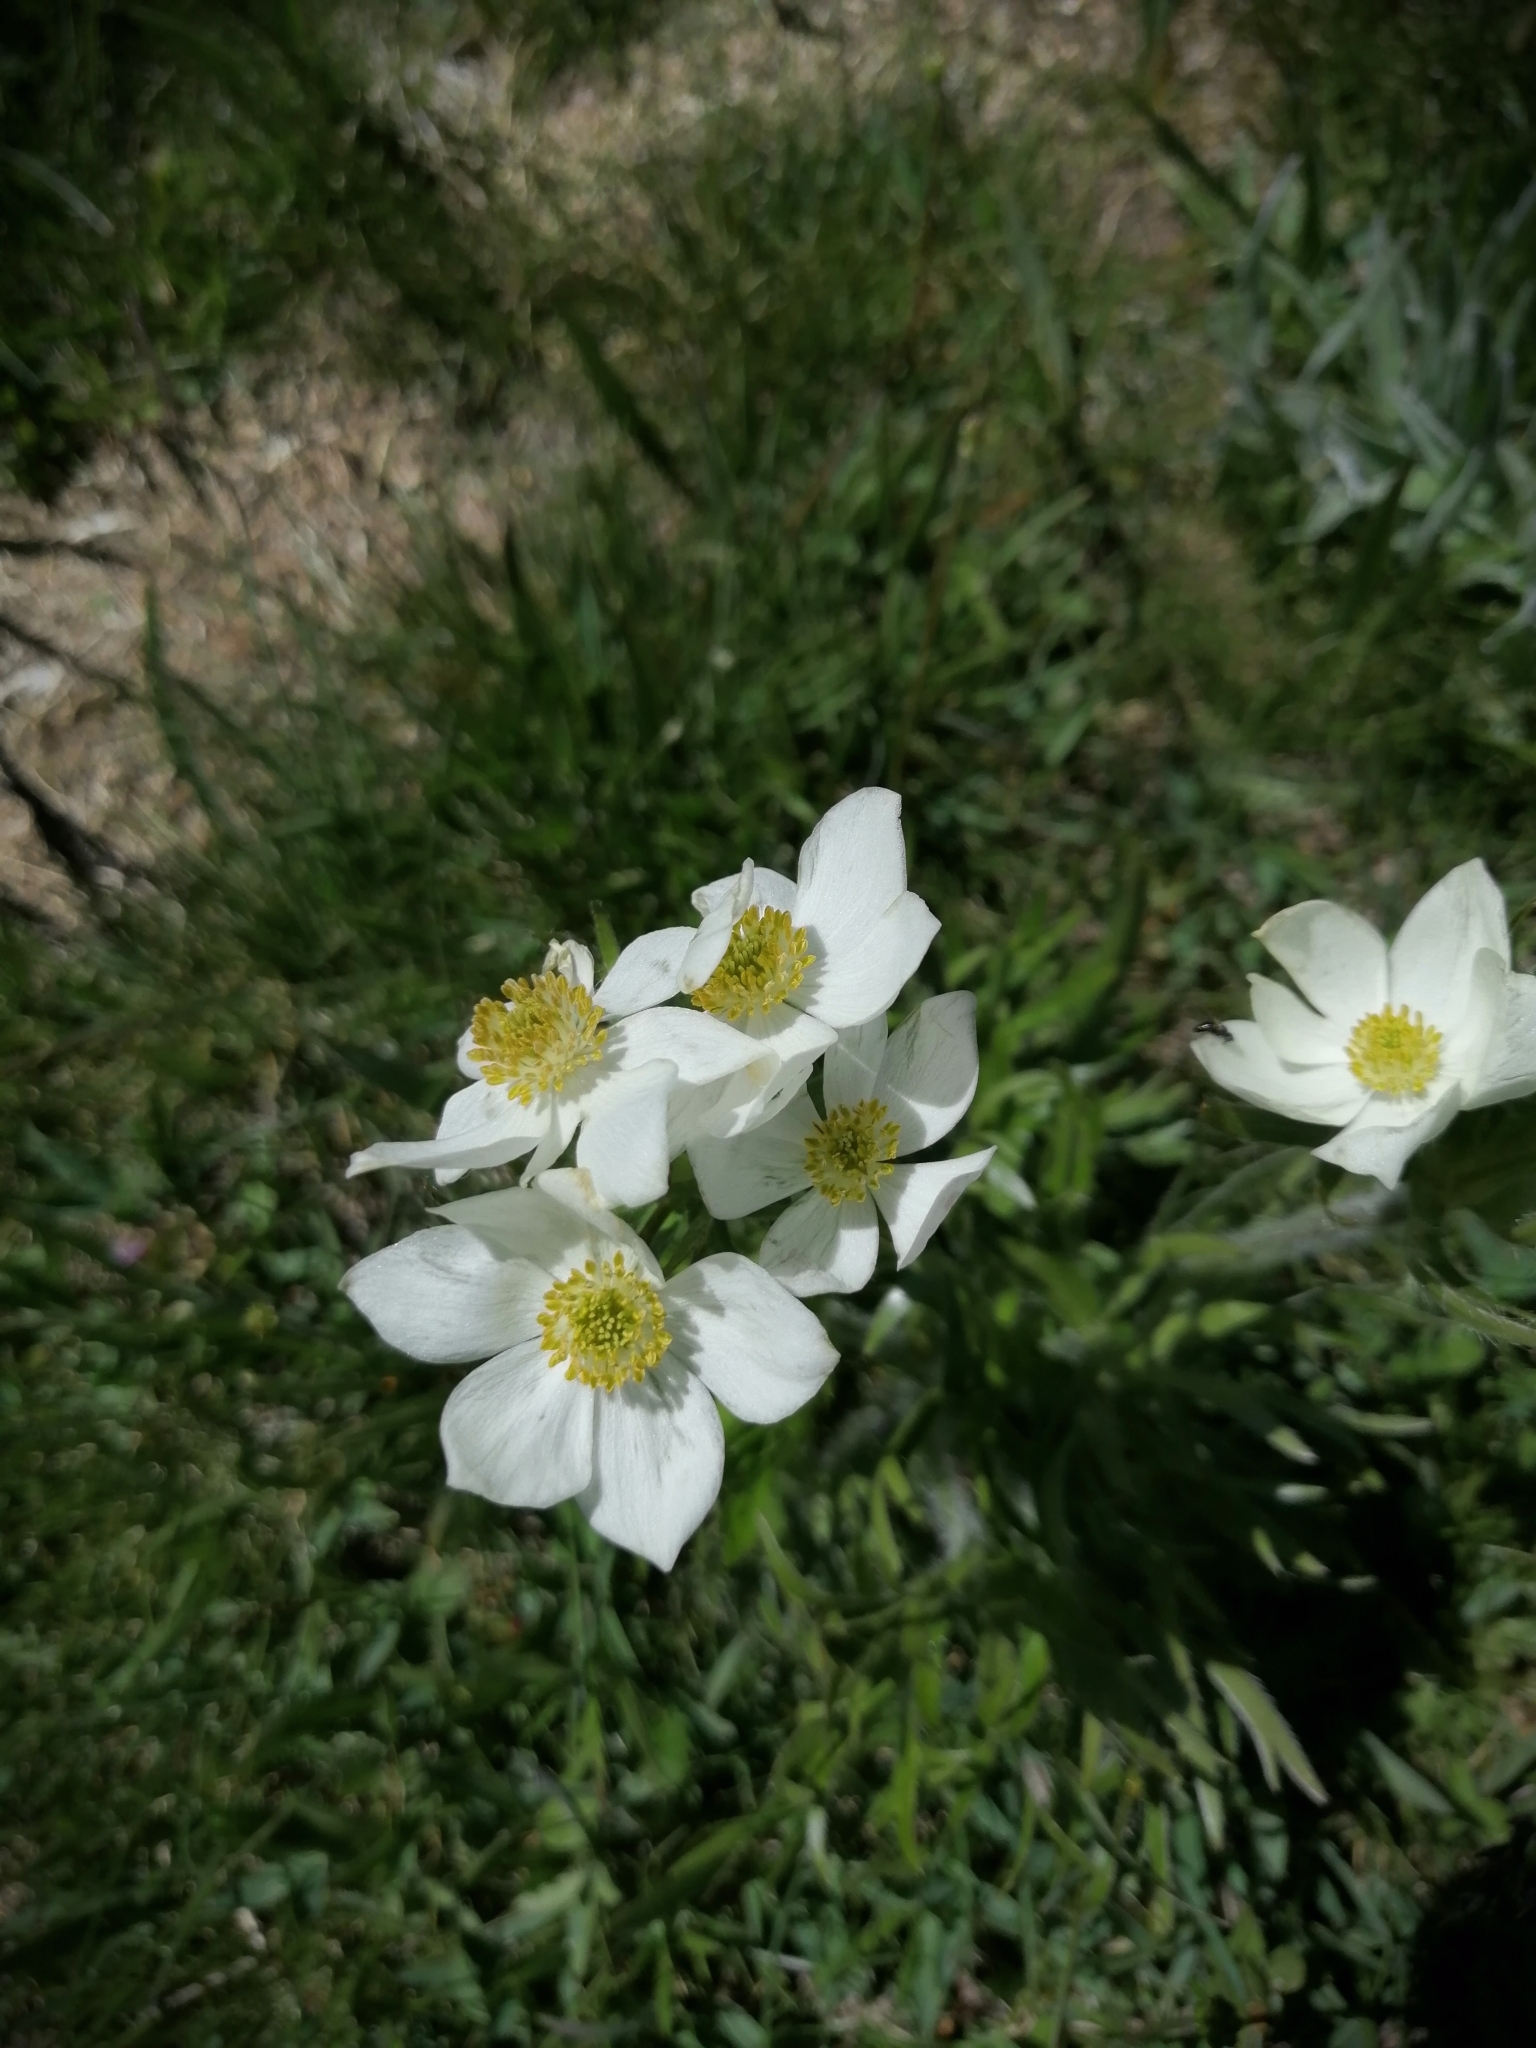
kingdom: Plantae
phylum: Tracheophyta
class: Magnoliopsida
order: Ranunculales
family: Ranunculaceae
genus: Anemonastrum
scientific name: Anemonastrum narcissiflorum
